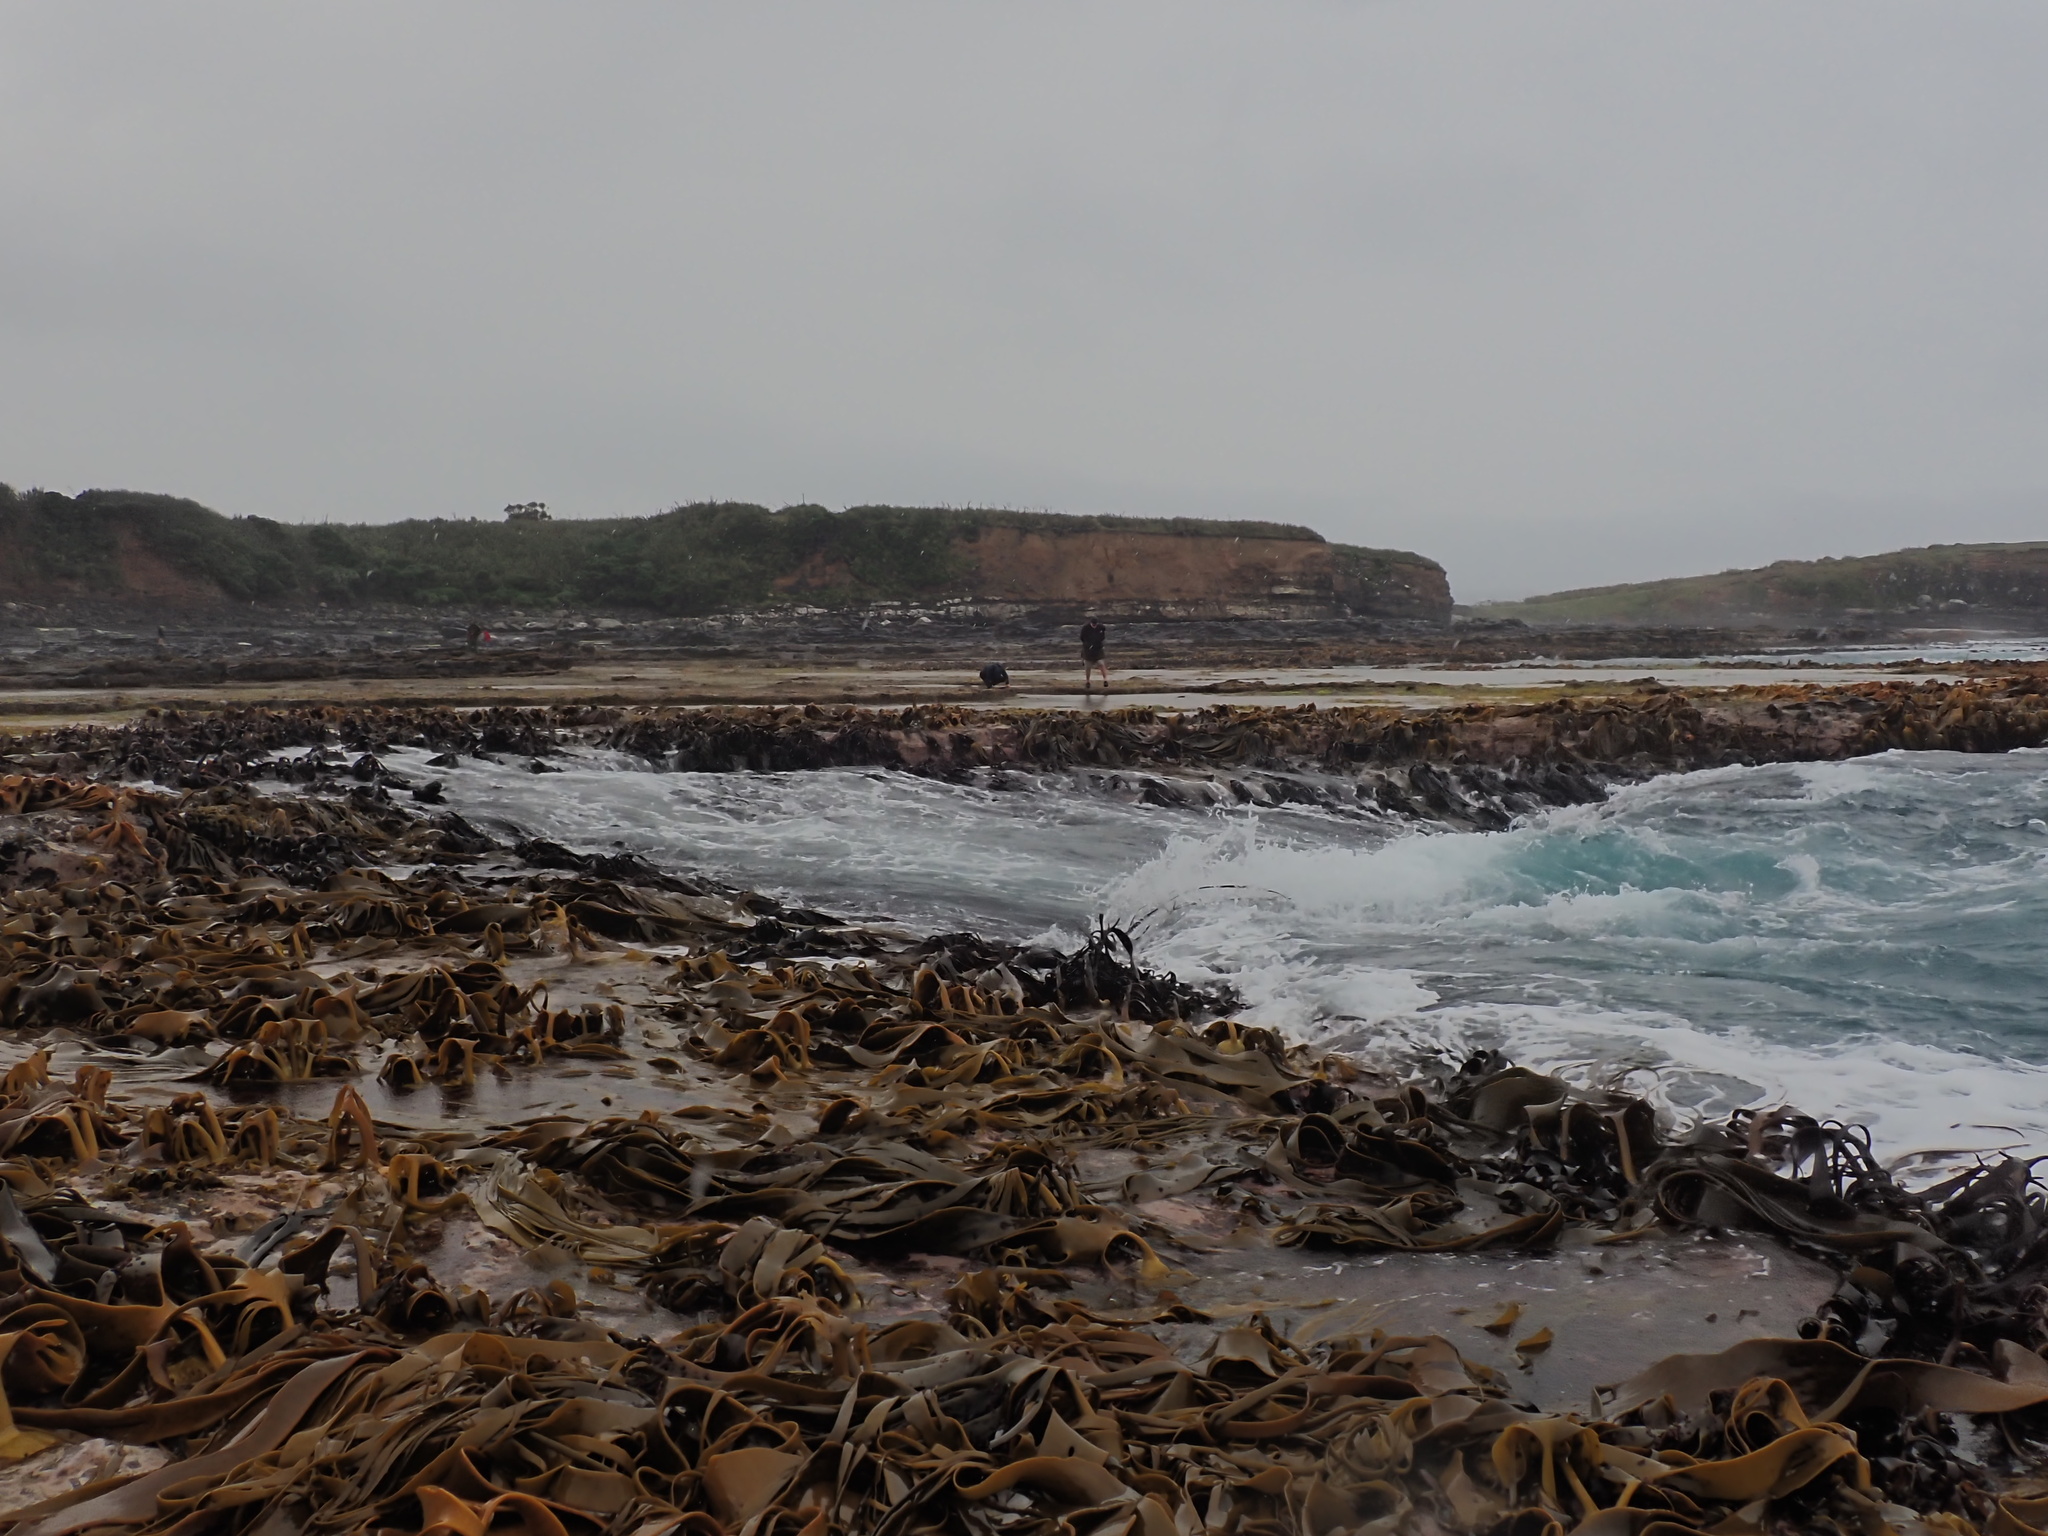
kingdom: Chromista
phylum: Ochrophyta
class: Phaeophyceae
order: Fucales
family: Durvillaeaceae
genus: Durvillaea
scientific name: Durvillaea willana
